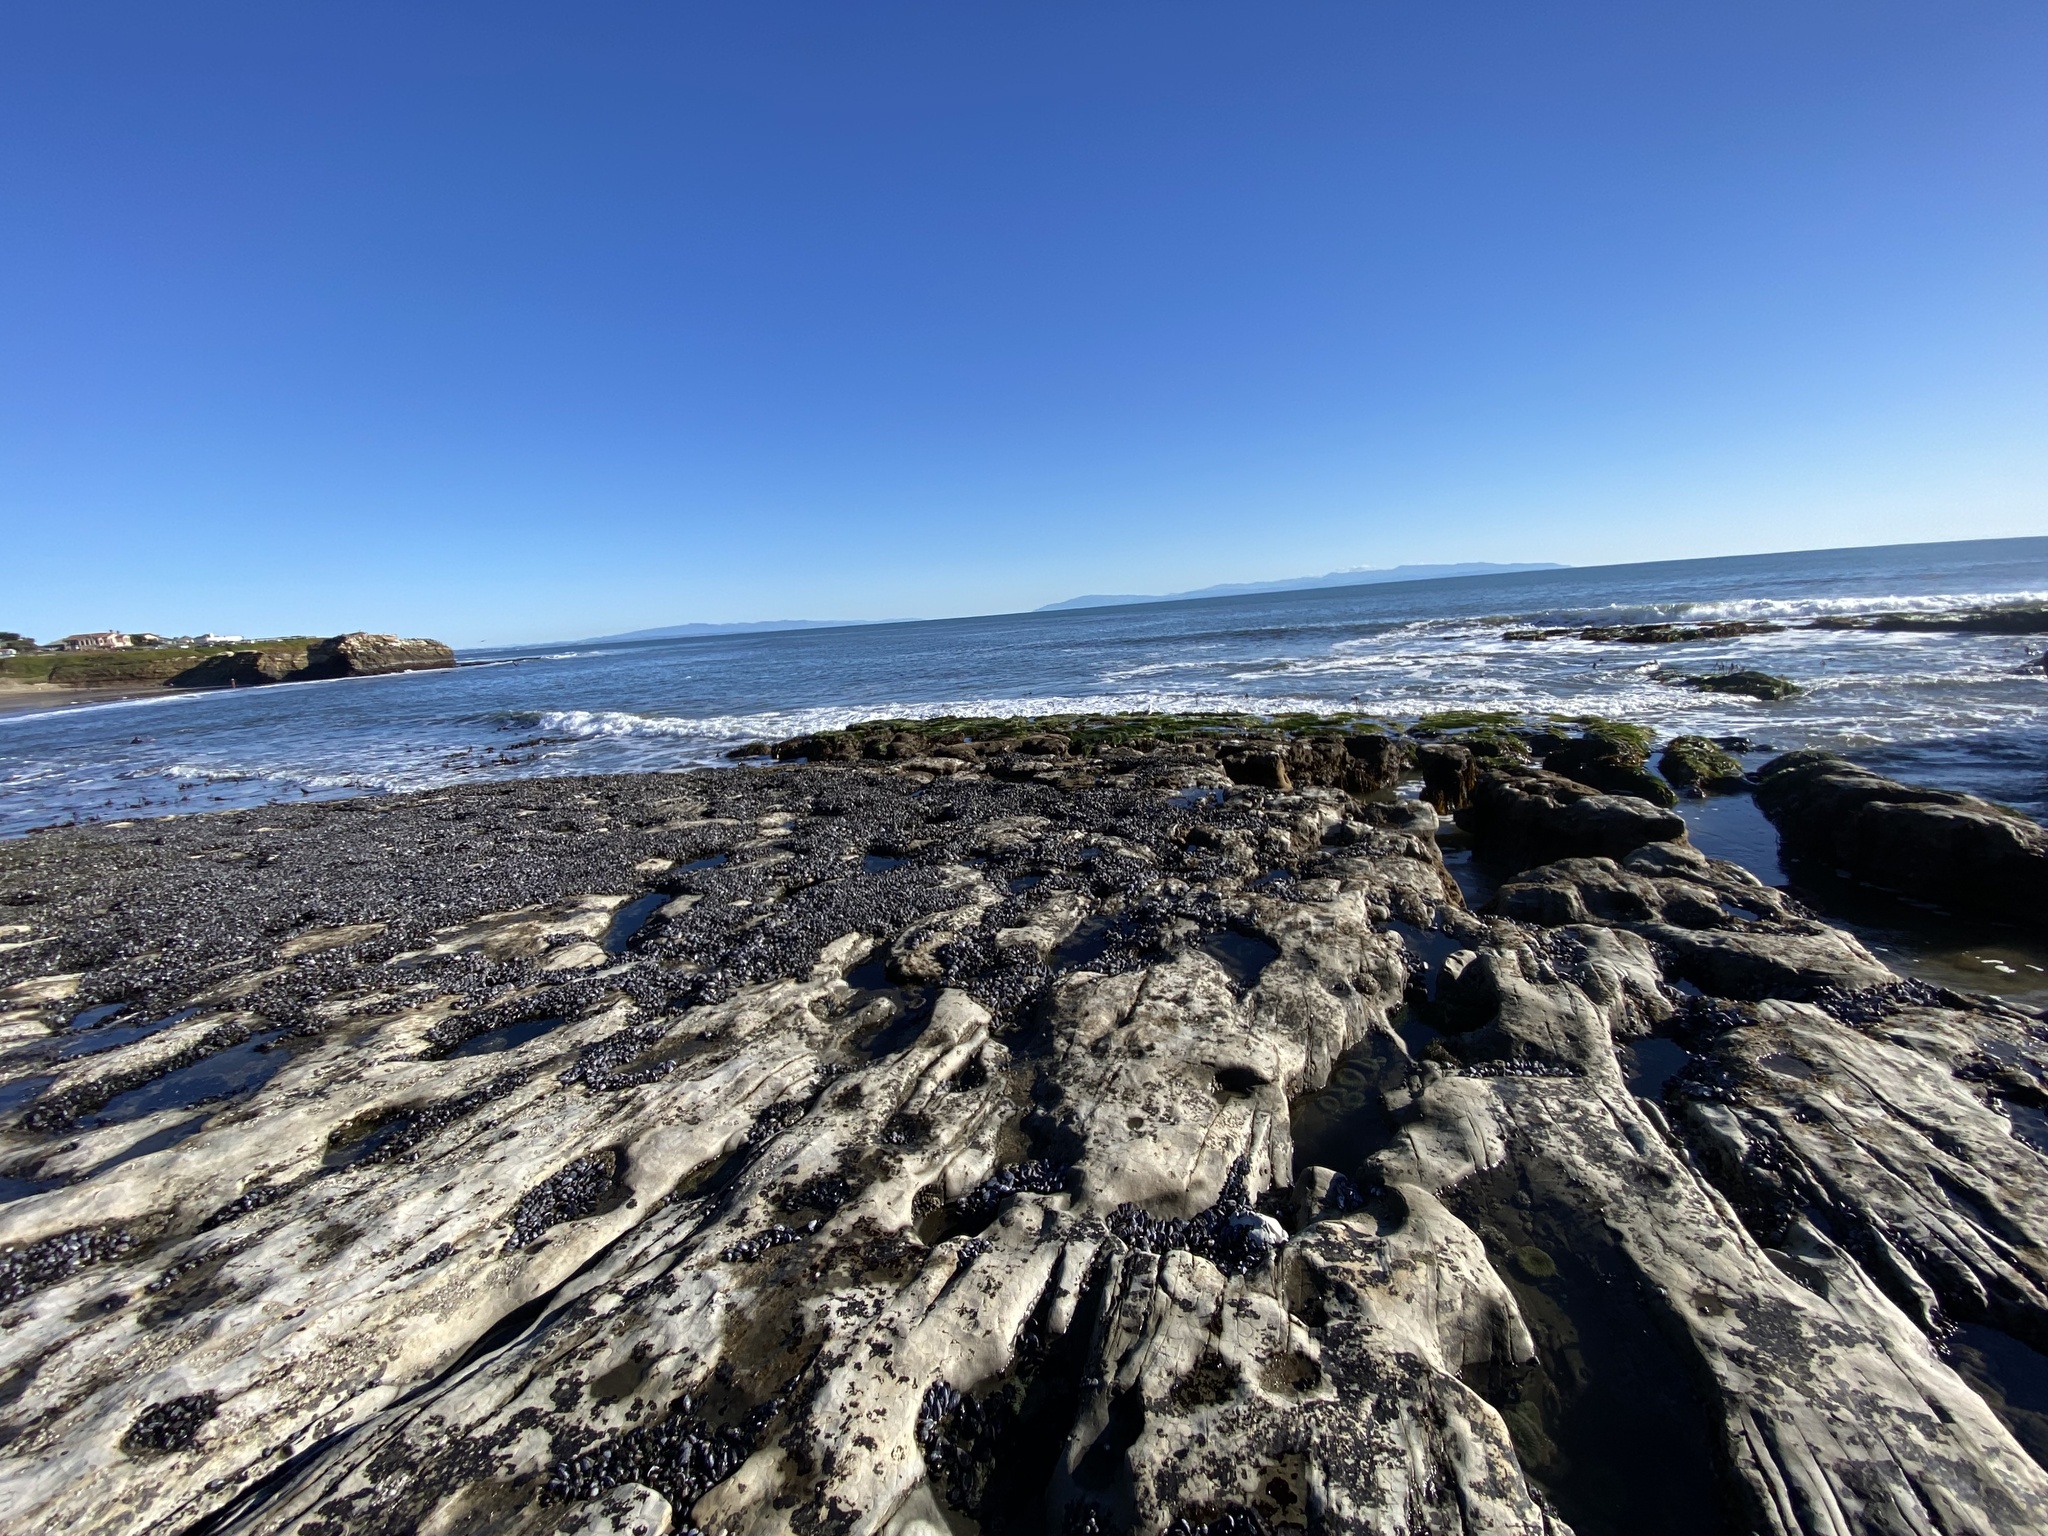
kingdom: Animalia
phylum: Mollusca
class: Bivalvia
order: Mytilida
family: Mytilidae
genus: Mytilus
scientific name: Mytilus californianus
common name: California mussel
